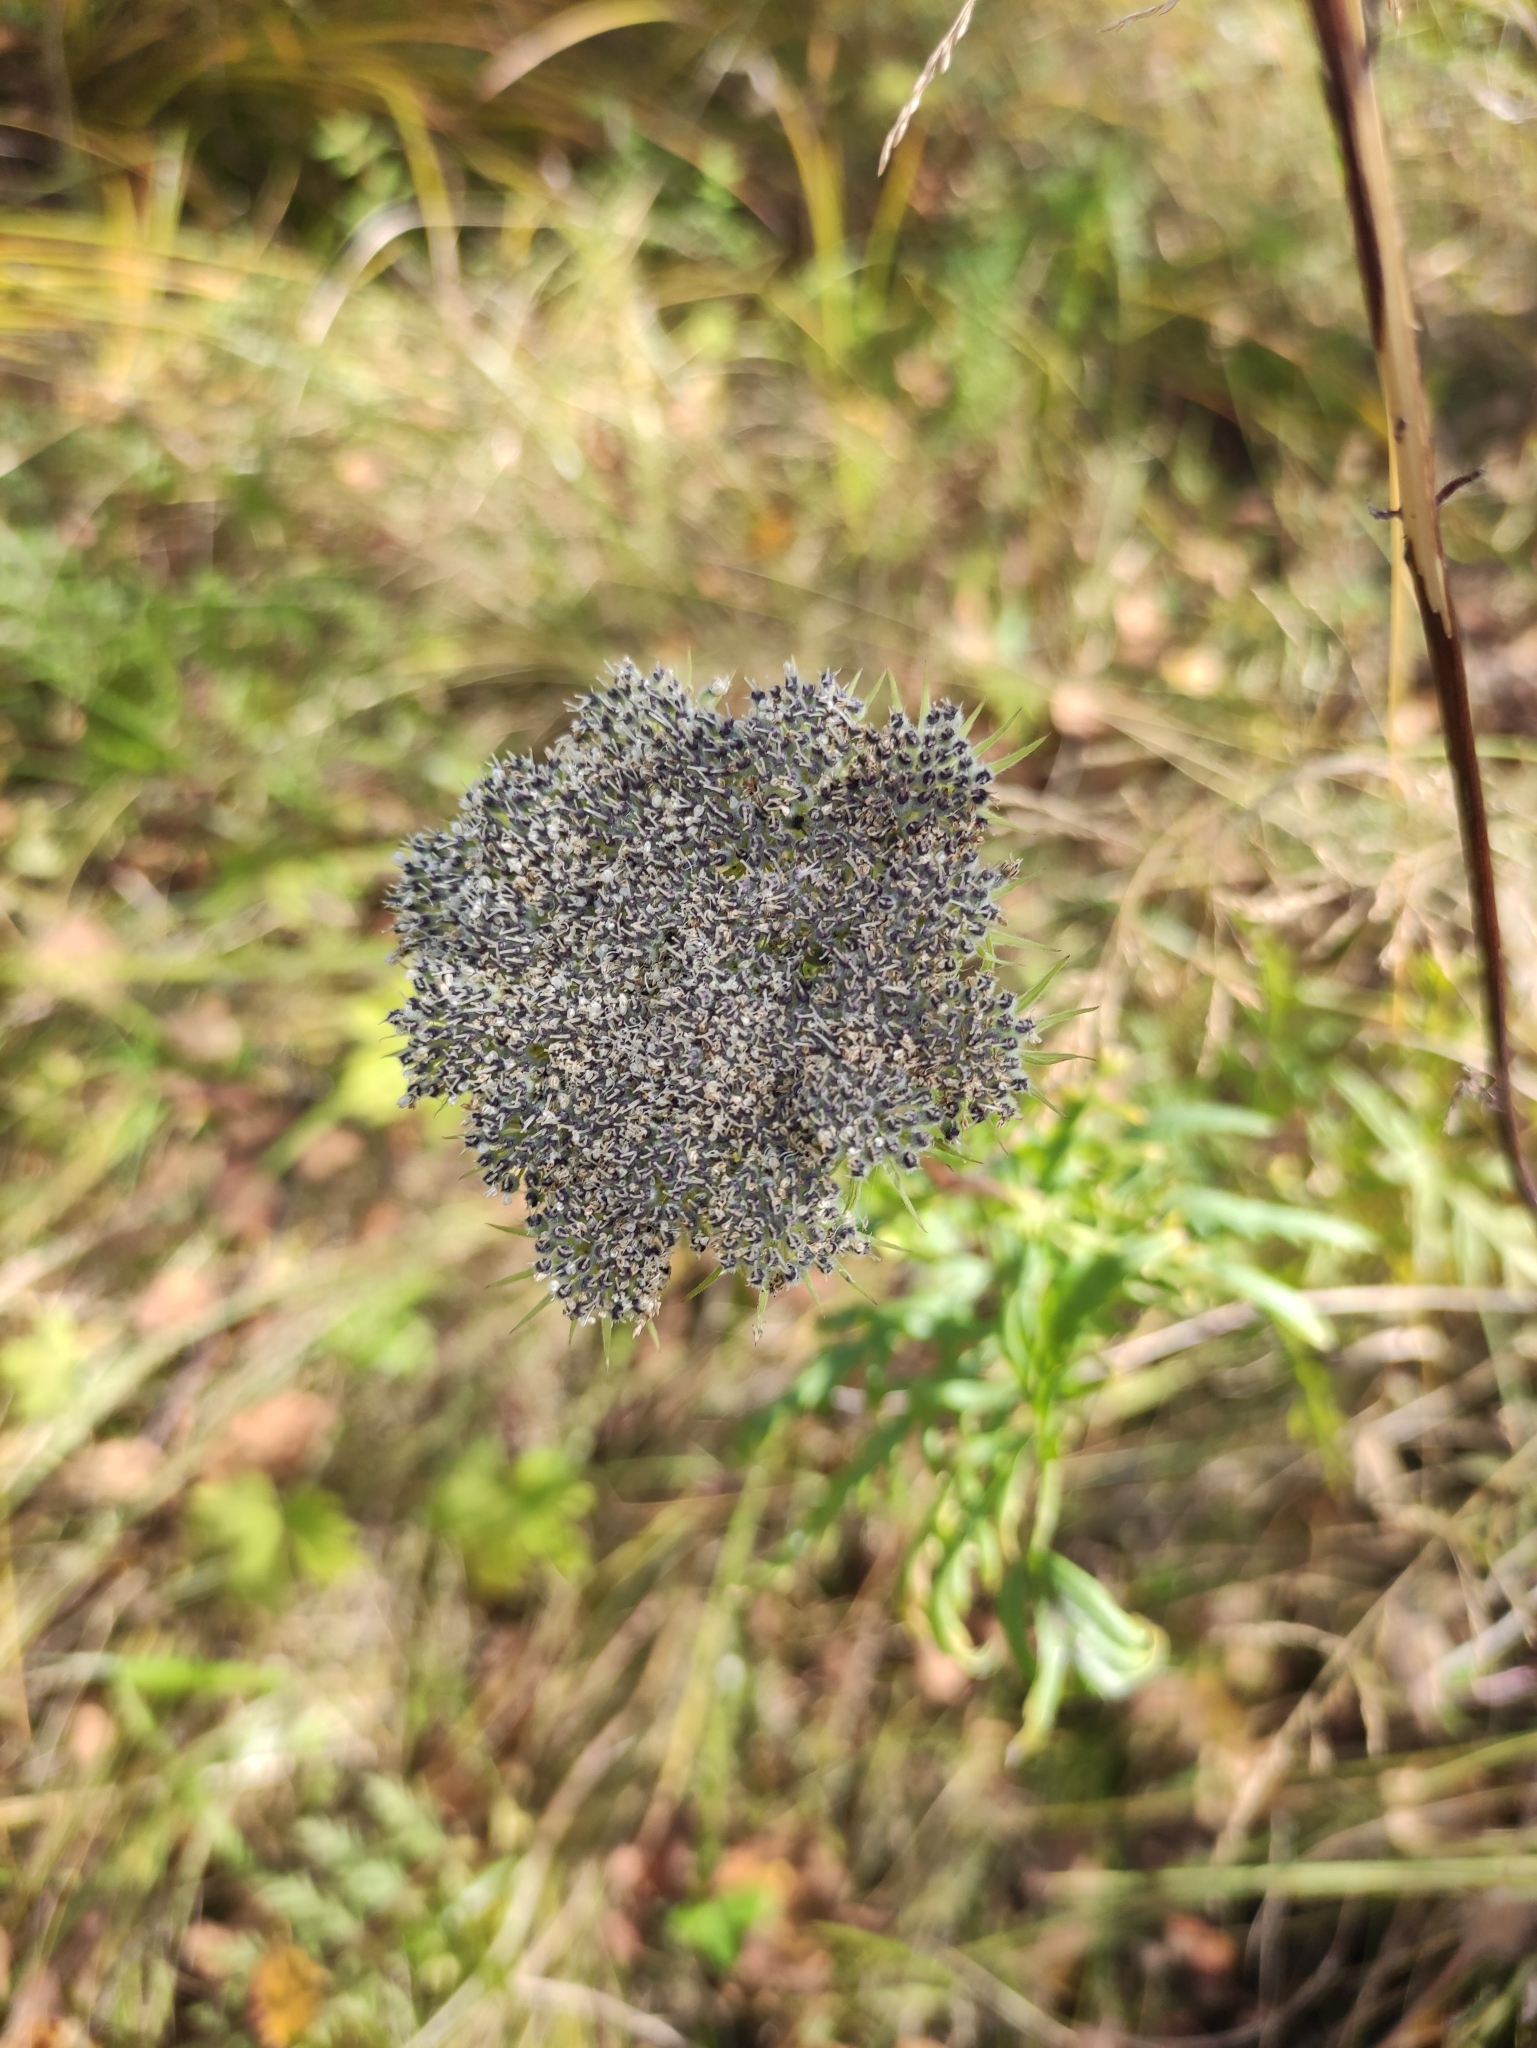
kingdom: Plantae
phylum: Tracheophyta
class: Magnoliopsida
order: Apiales
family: Apiaceae
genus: Seseli
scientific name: Seseli condensatum
